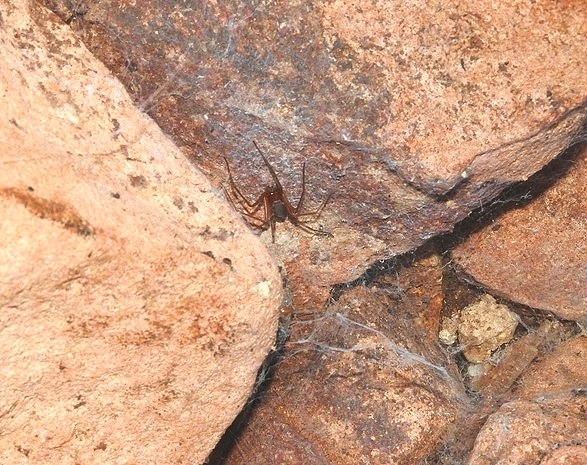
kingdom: Animalia
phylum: Arthropoda
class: Arachnida
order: Araneae
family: Sicariidae
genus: Loxosceles
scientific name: Loxosceles yucatana
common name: Violin spiders
